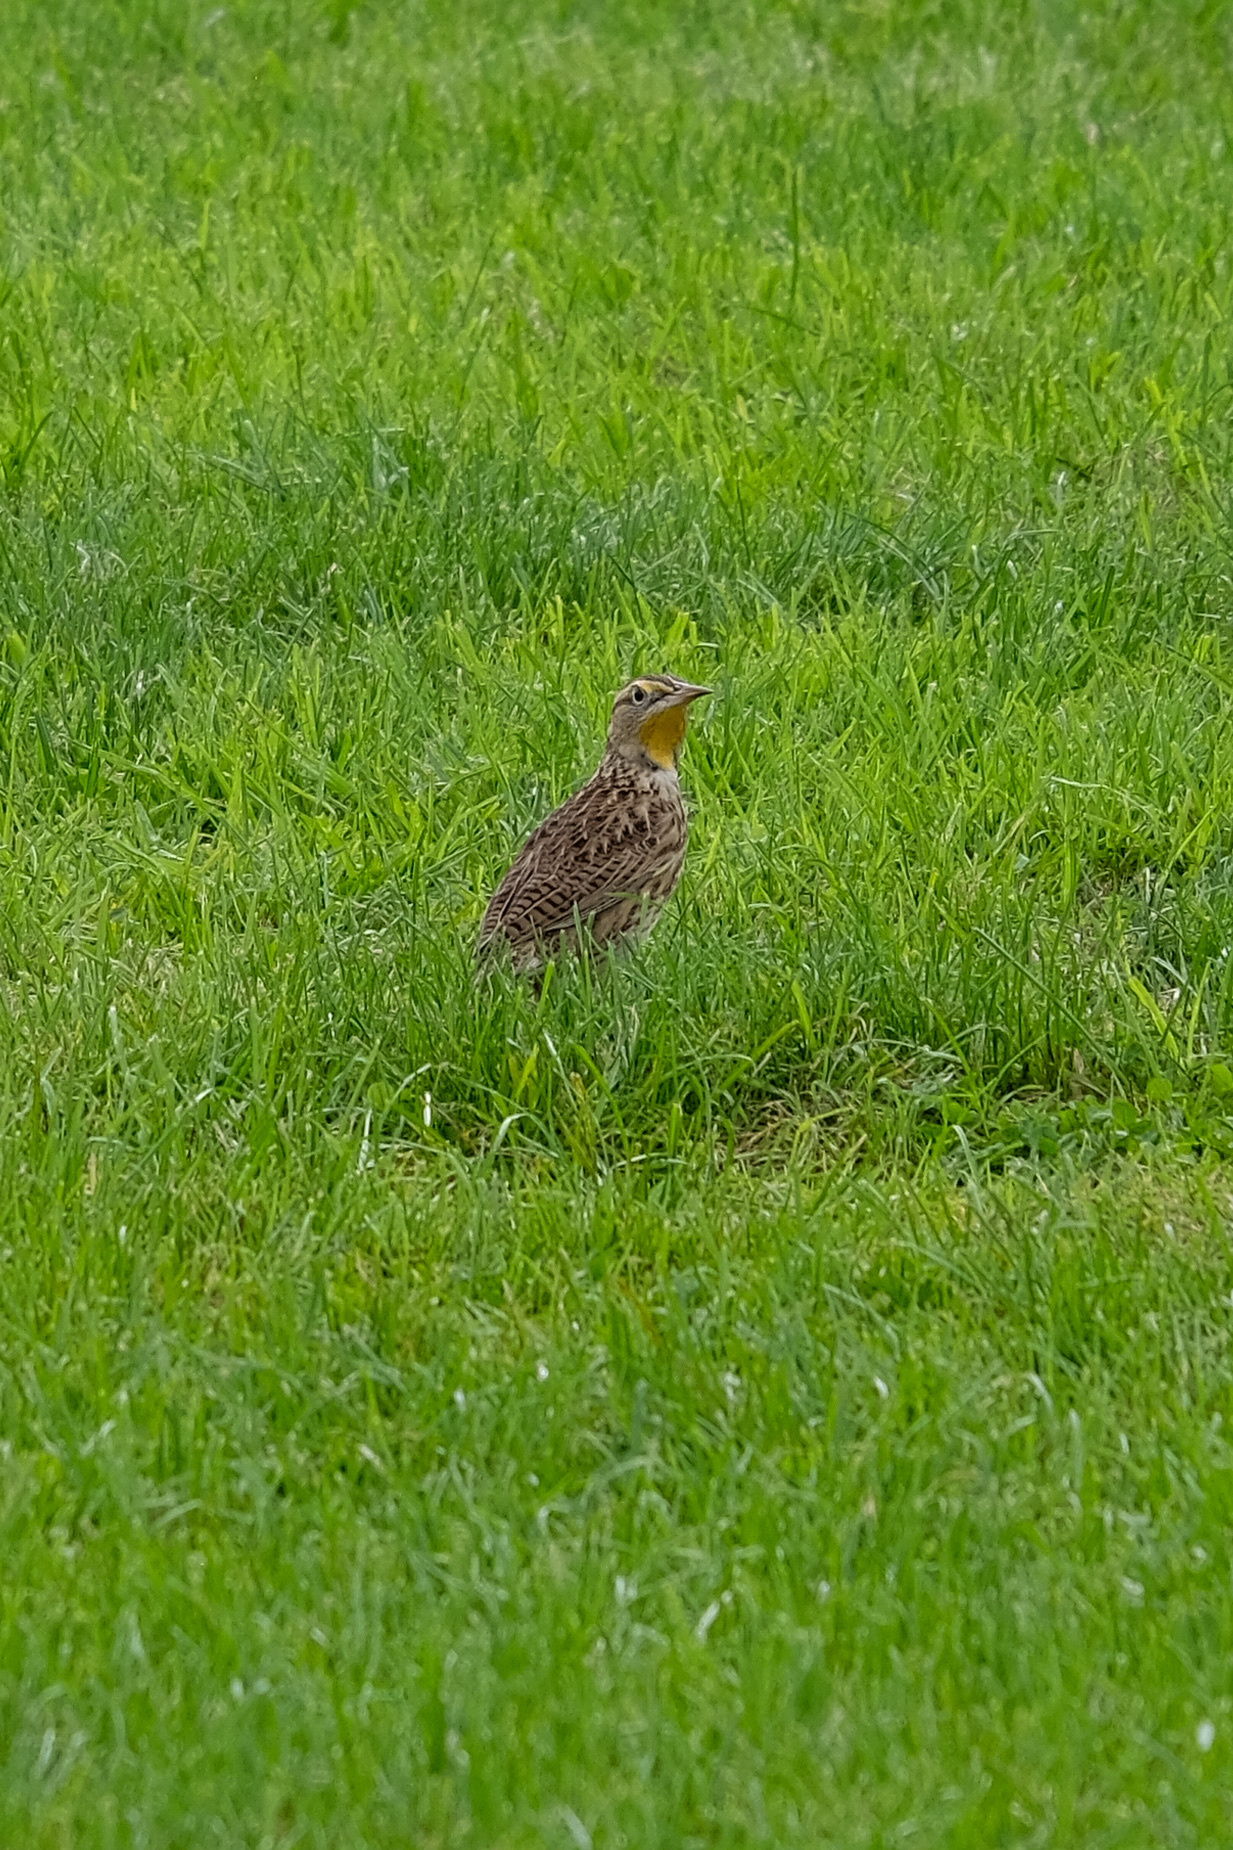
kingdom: Animalia
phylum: Chordata
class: Aves
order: Passeriformes
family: Icteridae
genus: Sturnella
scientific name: Sturnella neglecta
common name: Western meadowlark
